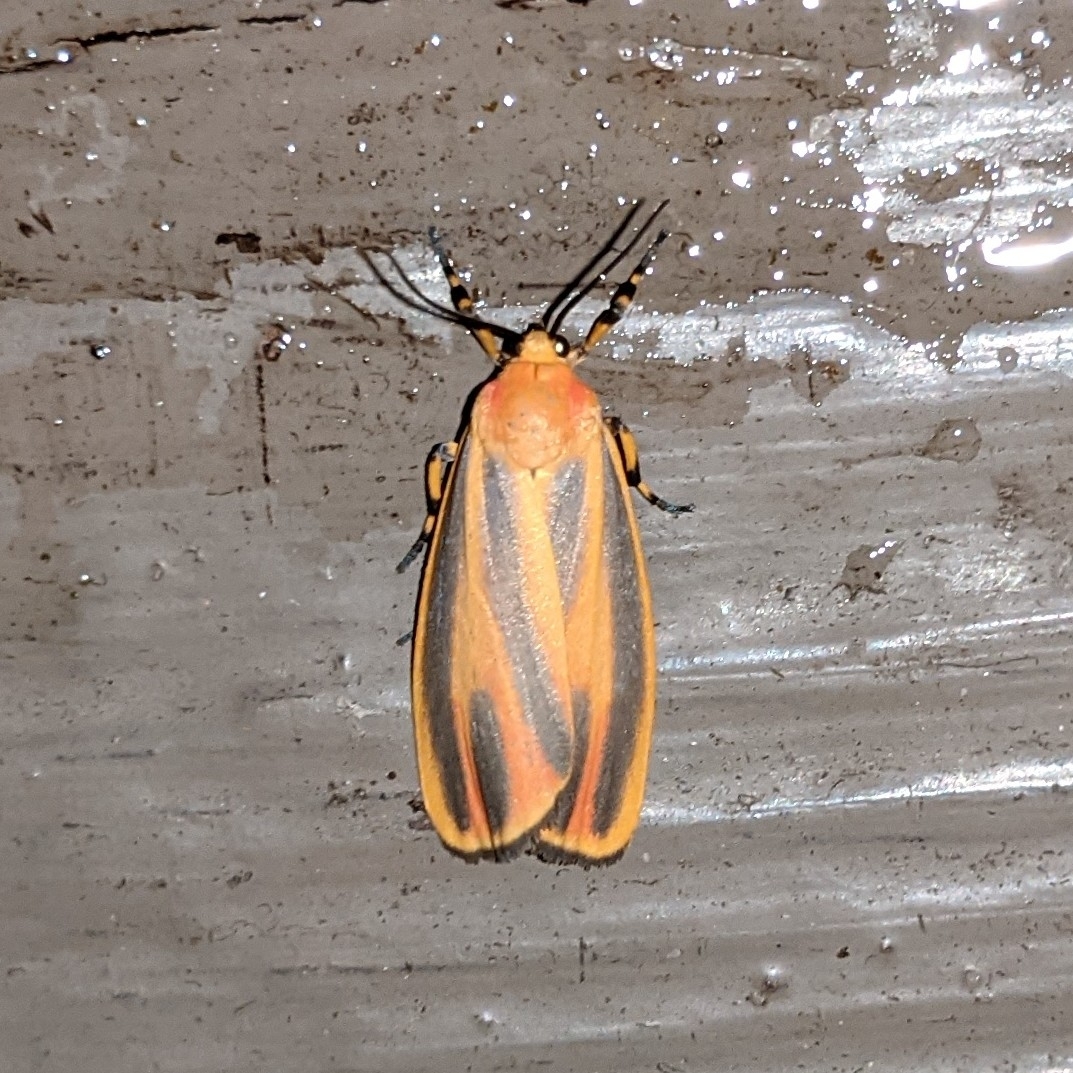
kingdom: Animalia
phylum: Arthropoda
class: Insecta
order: Lepidoptera
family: Erebidae
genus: Hypoprepia
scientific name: Hypoprepia fucosa
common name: Painted lichen moth
